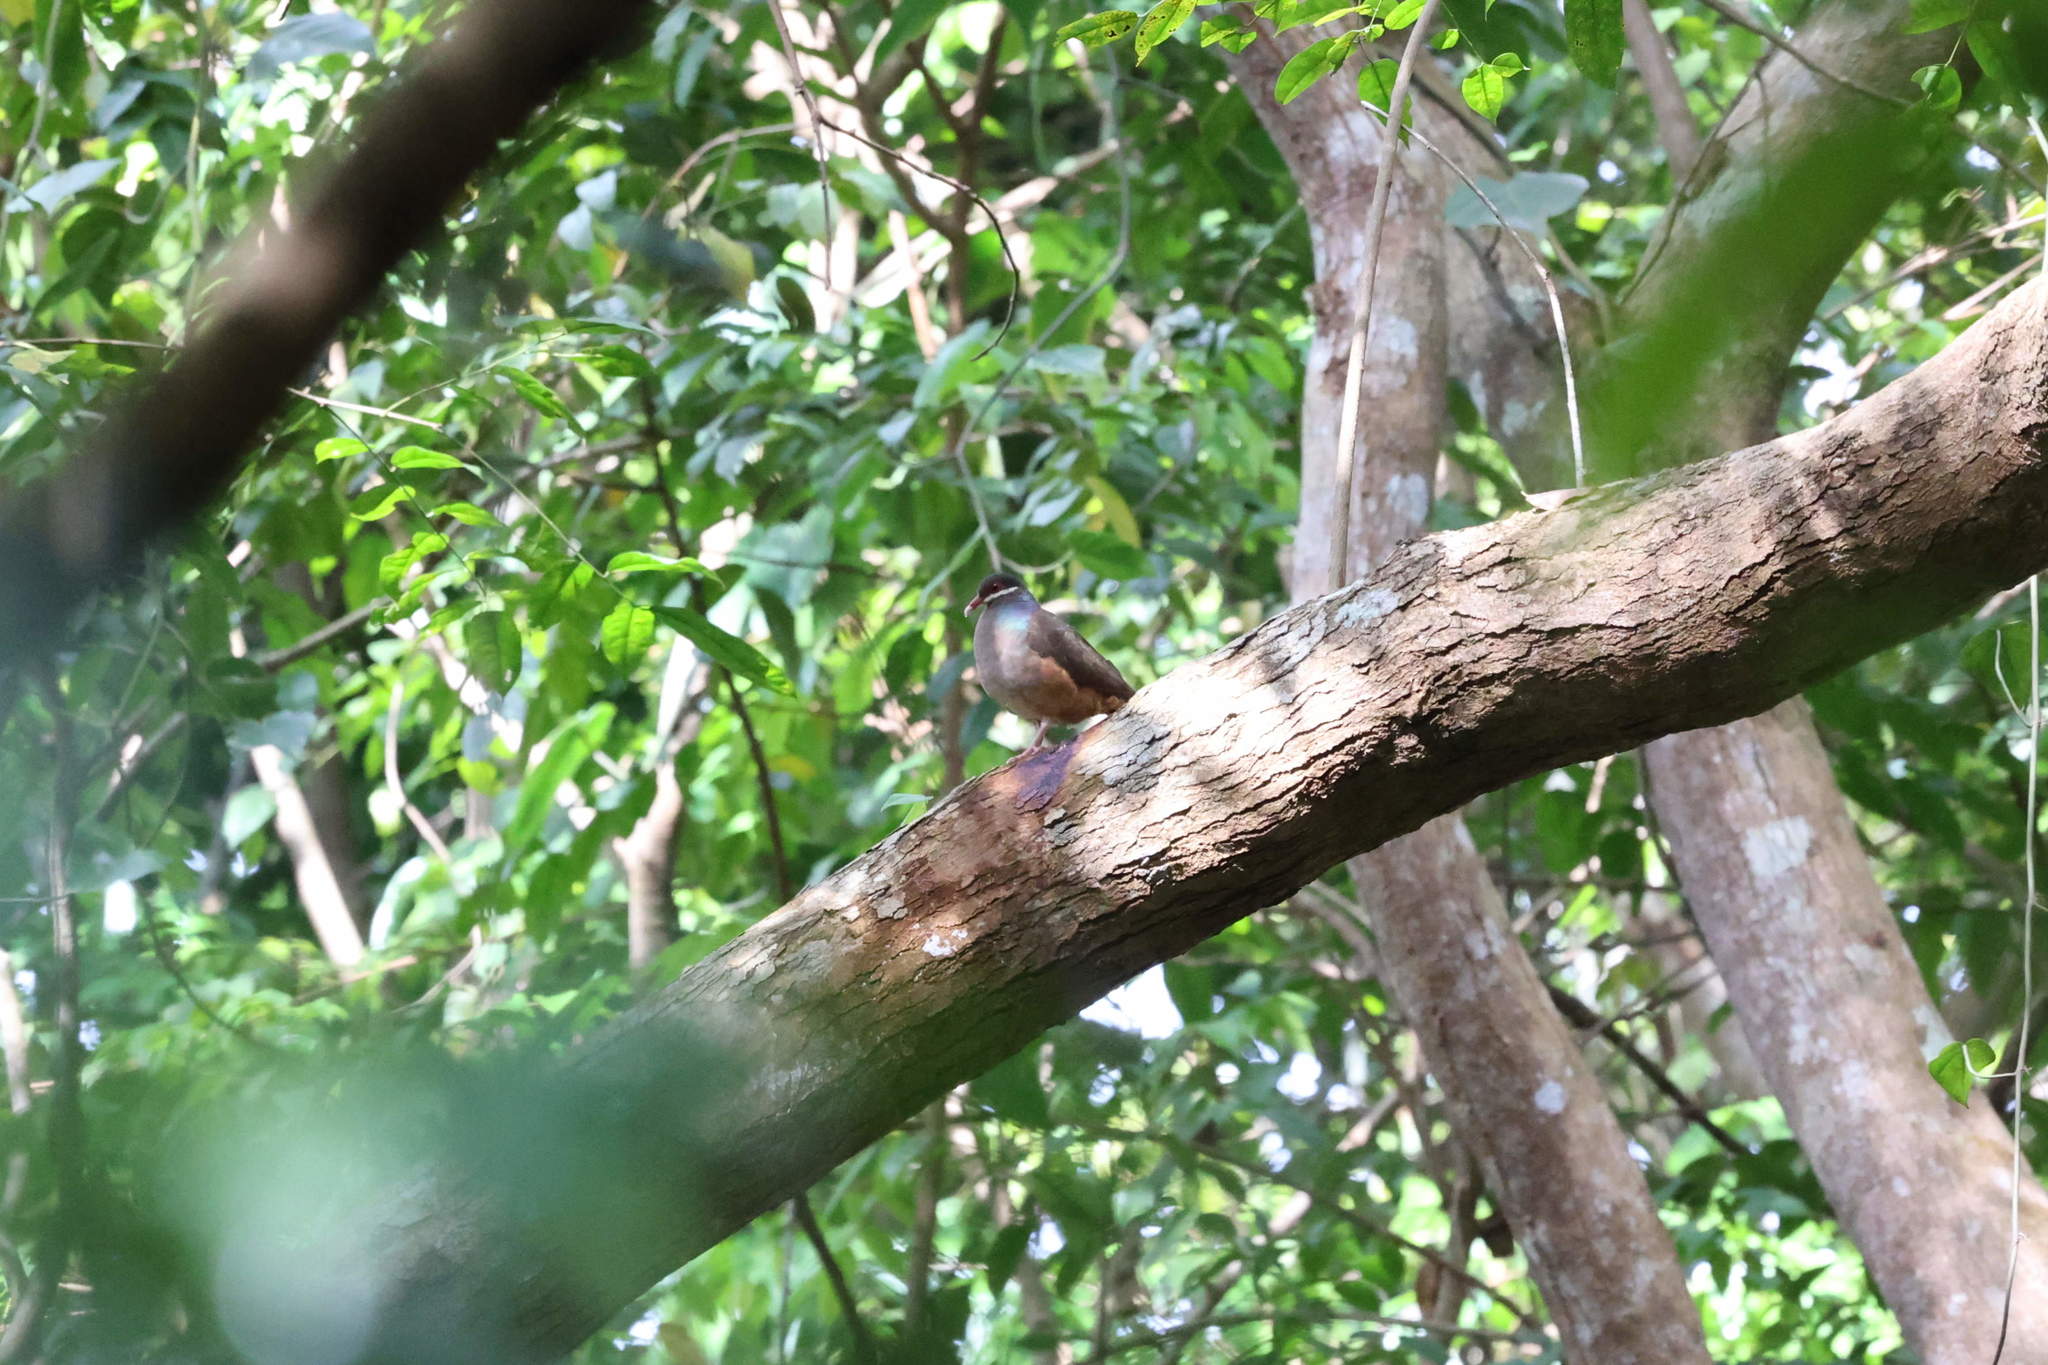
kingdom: Animalia
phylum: Chordata
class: Aves
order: Columbiformes
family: Columbidae
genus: Geotrygon
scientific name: Geotrygon mystacea
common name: Bridled quail-dove
